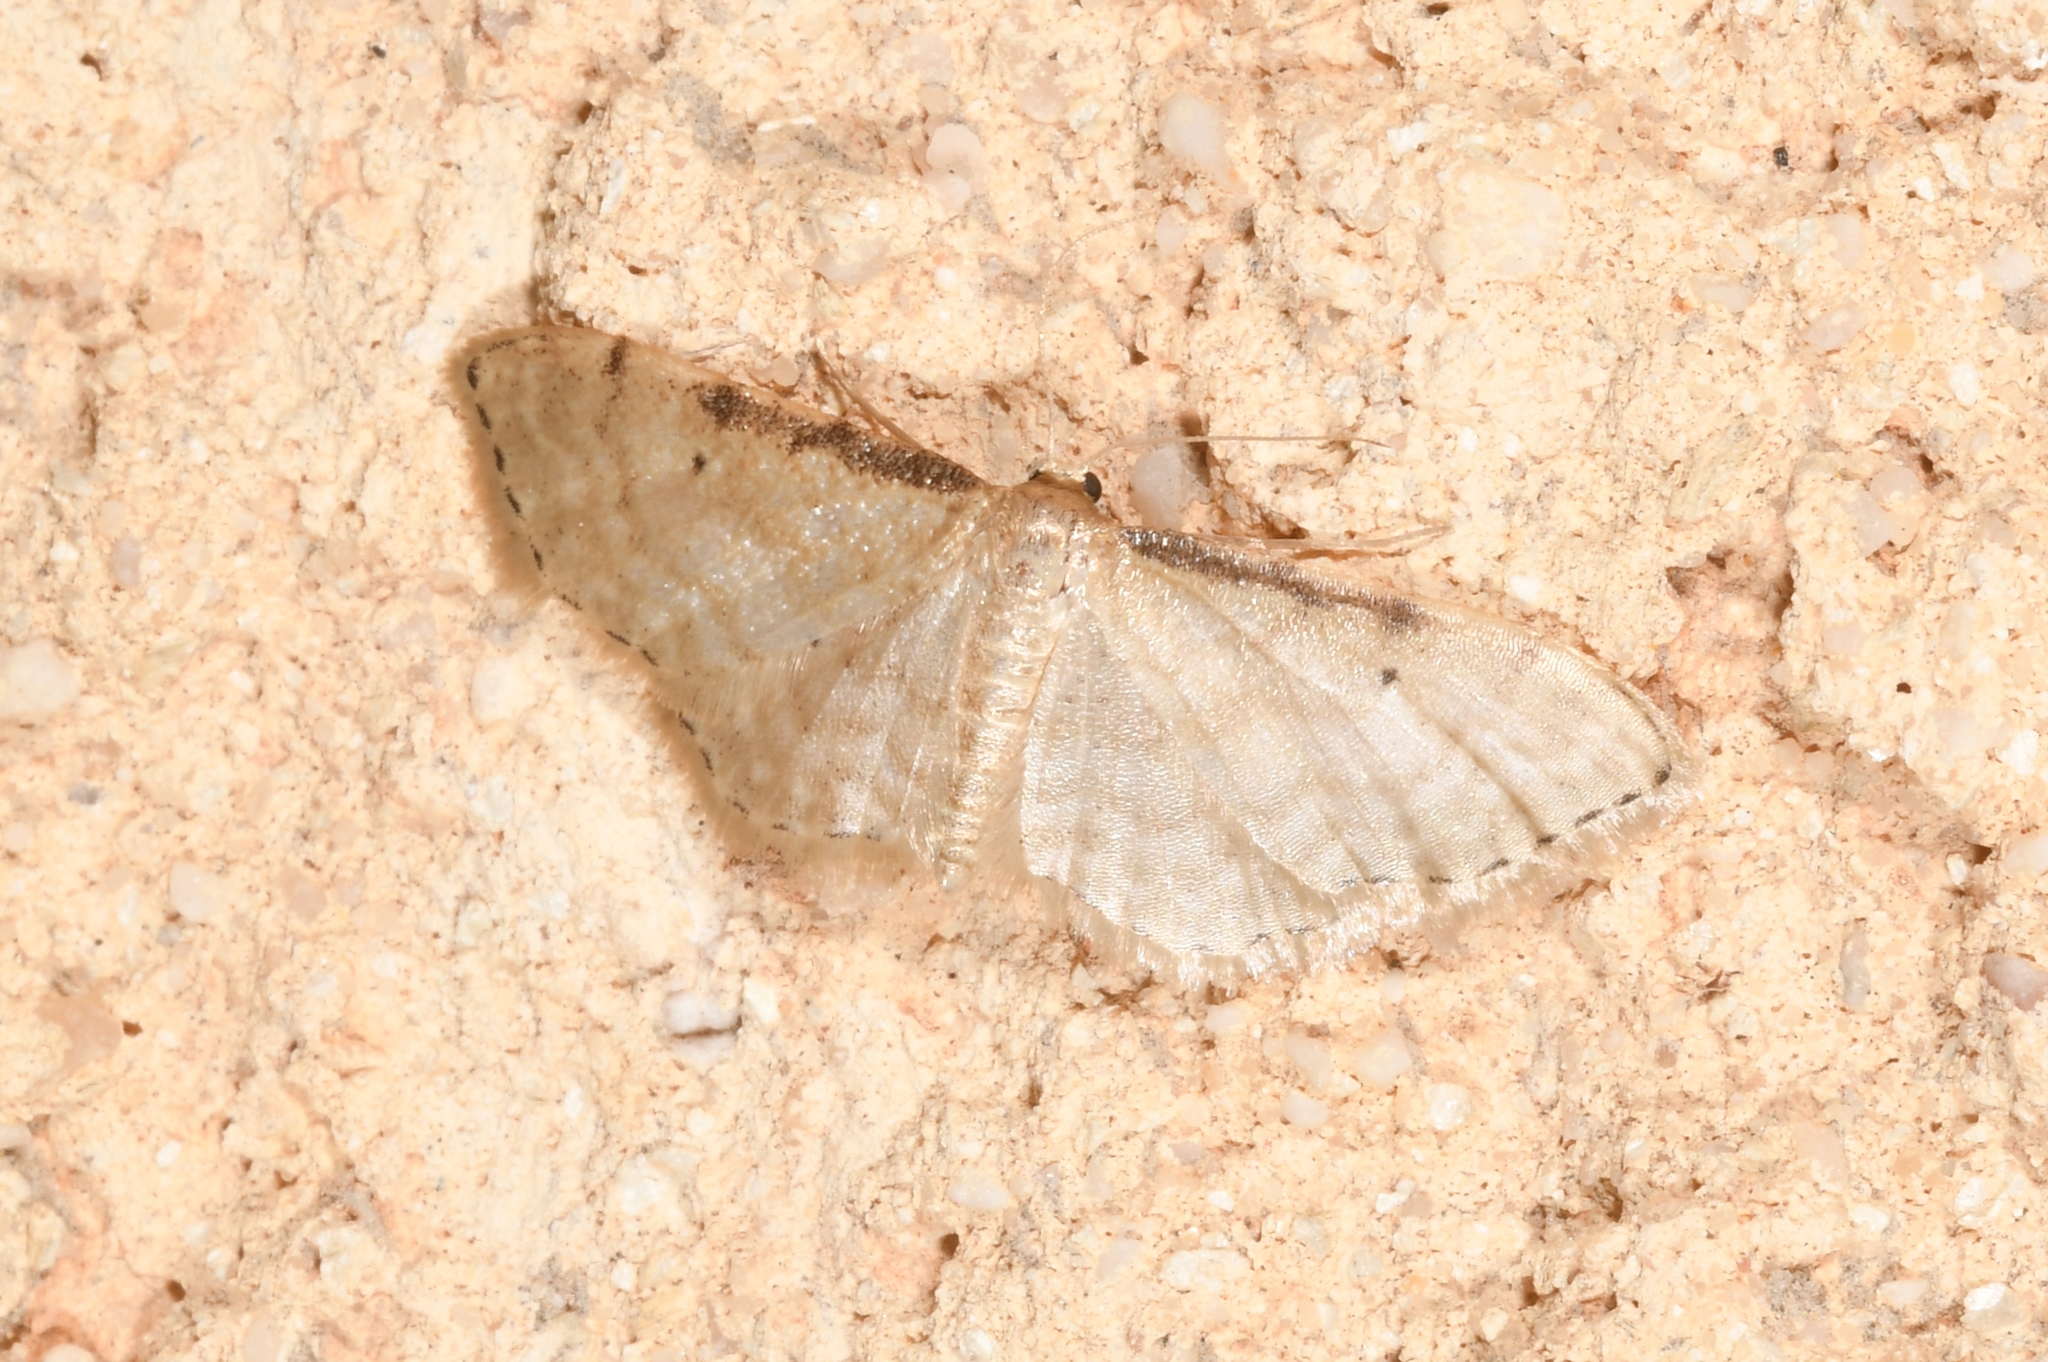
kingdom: Animalia
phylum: Arthropoda
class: Insecta
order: Lepidoptera
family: Geometridae
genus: Idaea
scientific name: Idaea fuscovenosa
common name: Dwarf cream wave
